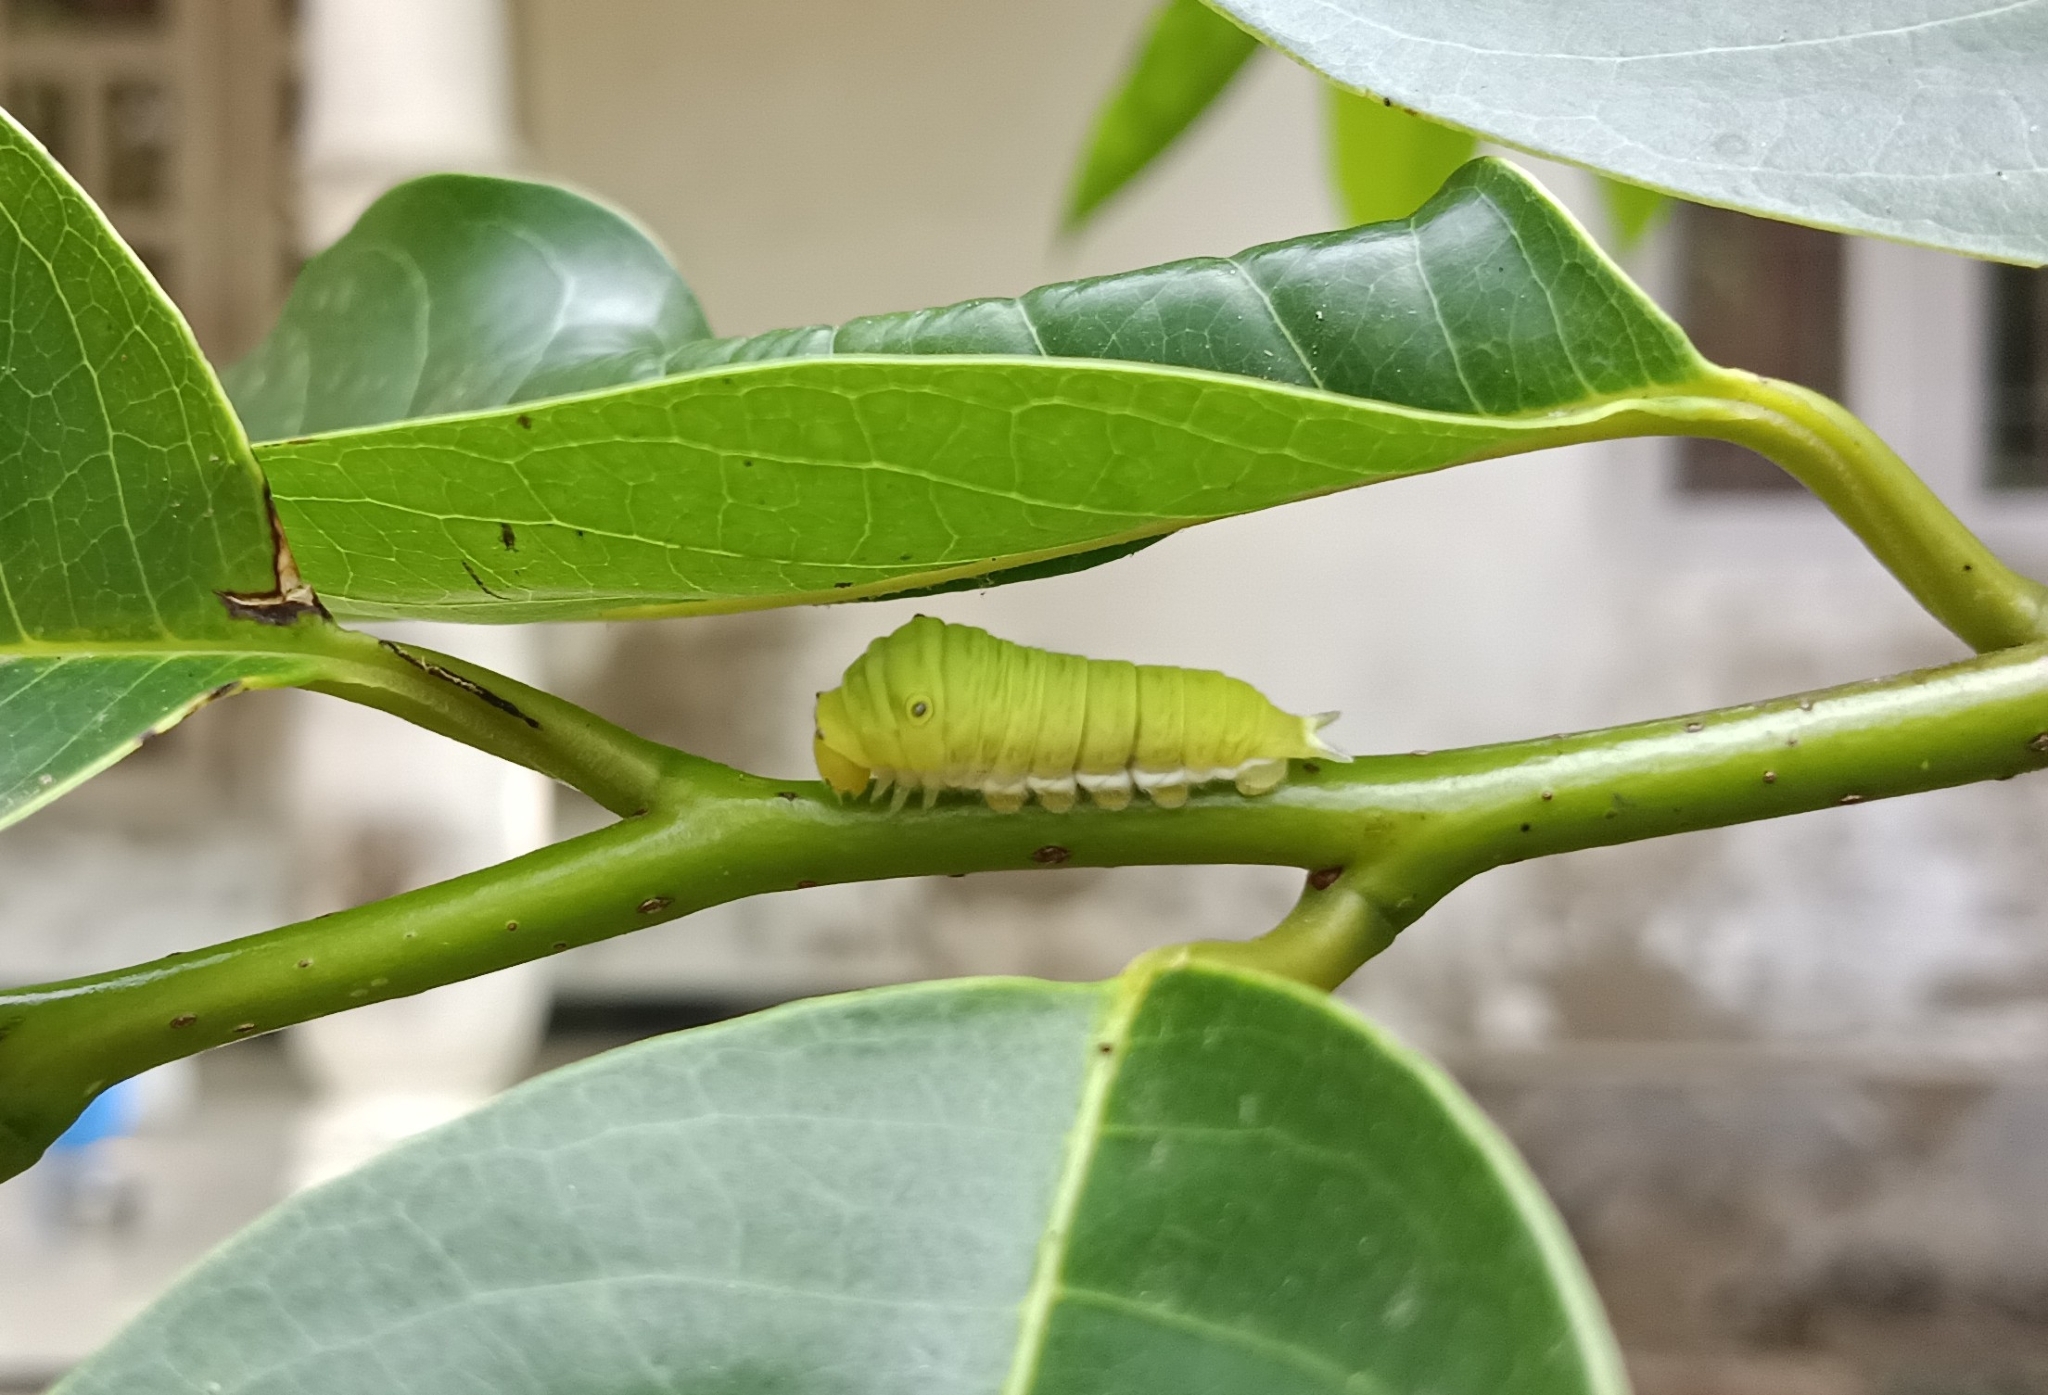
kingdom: Animalia
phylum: Arthropoda
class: Insecta
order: Lepidoptera
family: Papilionidae
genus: Graphium
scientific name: Graphium doson
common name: Common jay
